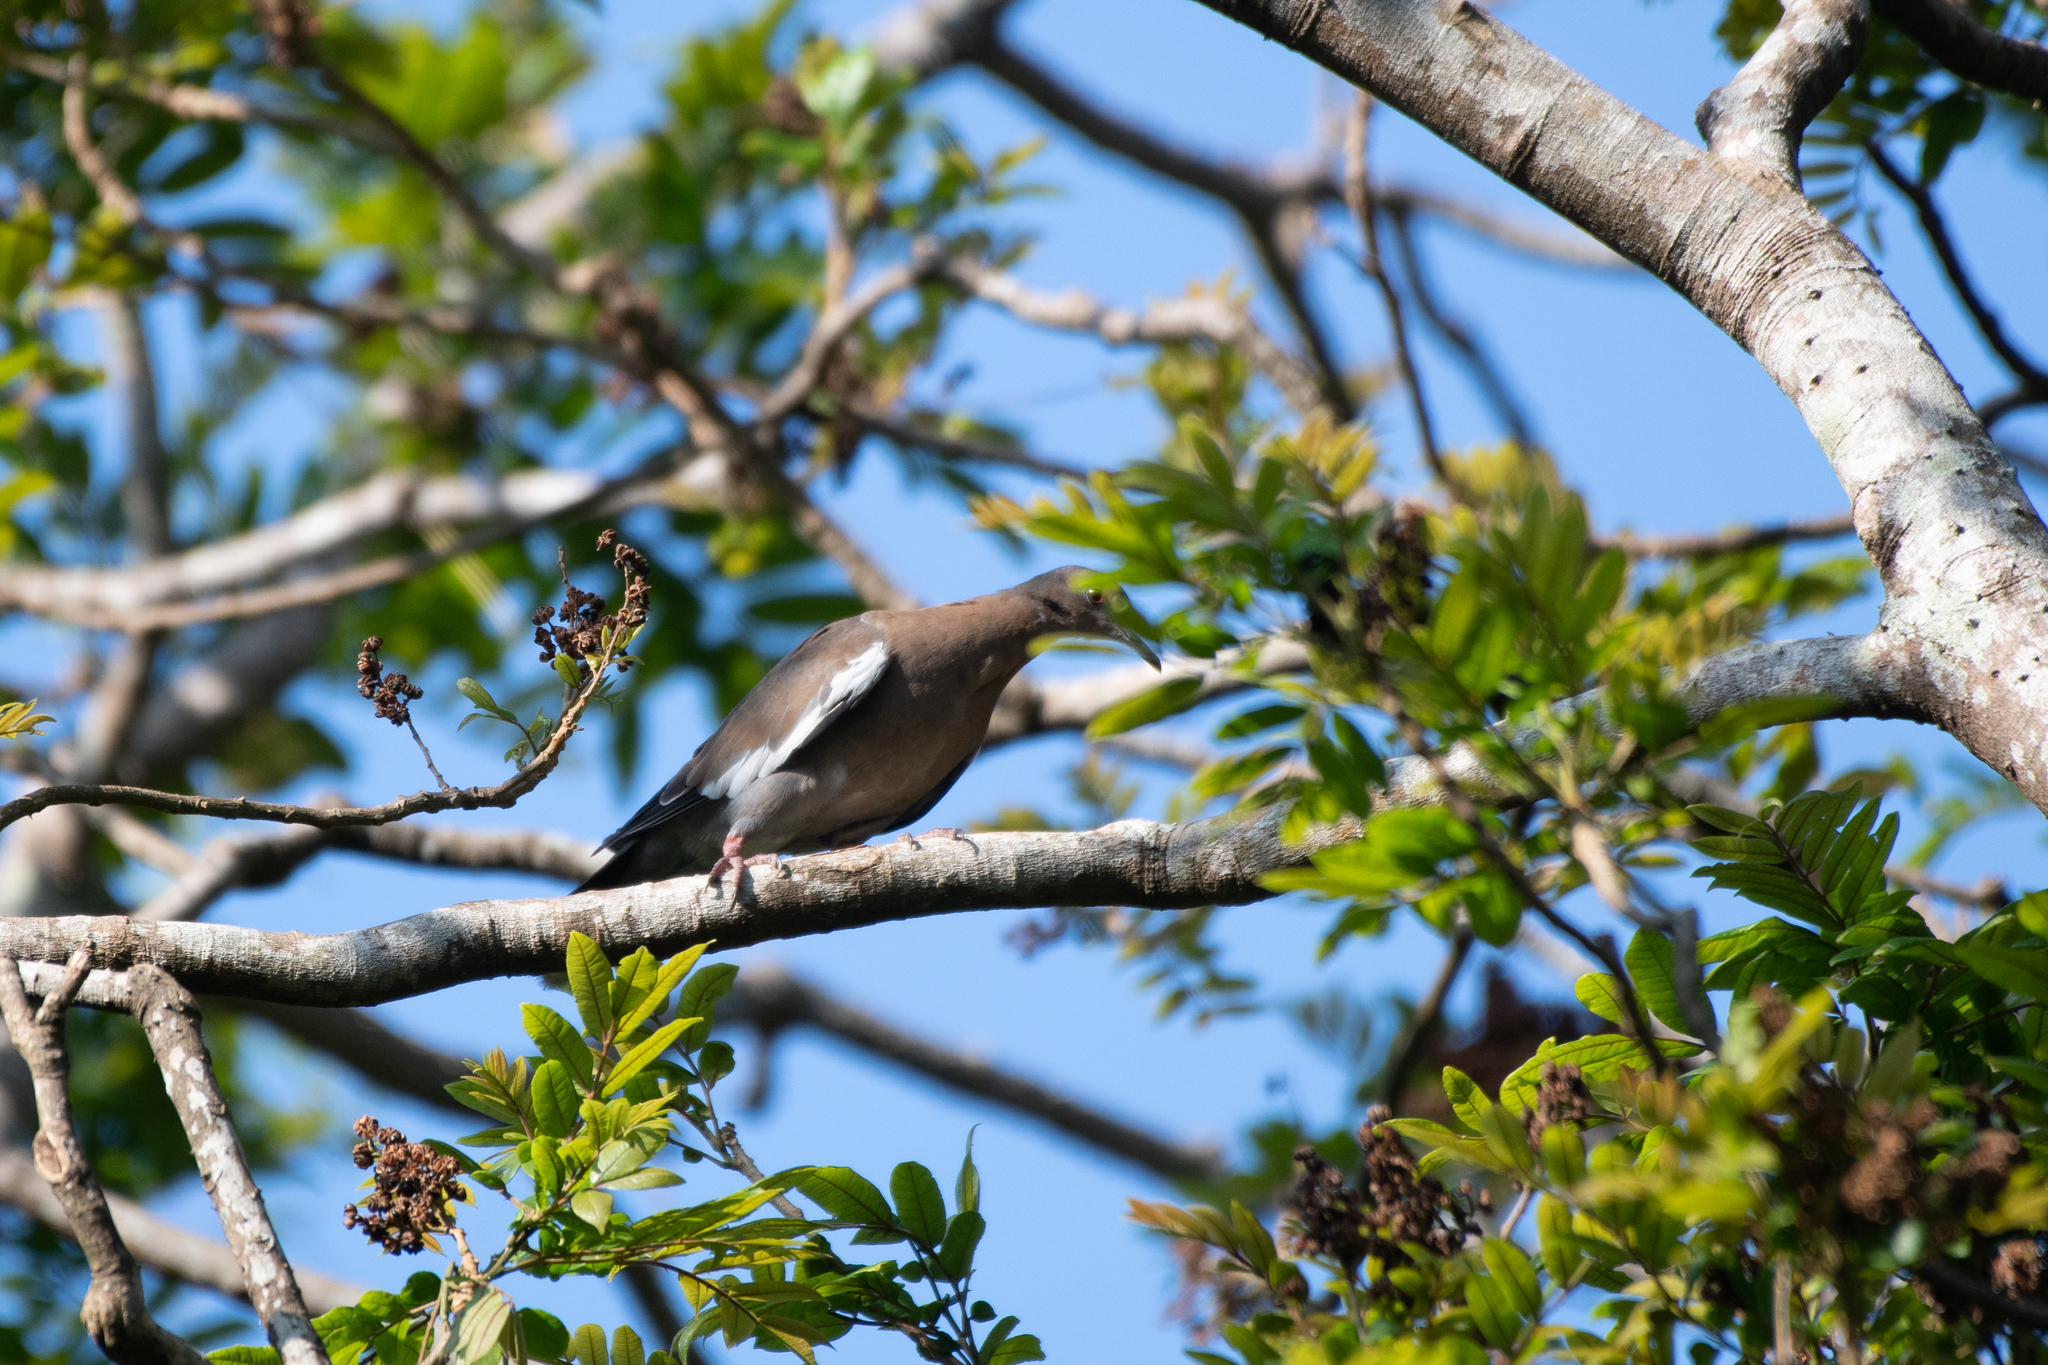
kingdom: Animalia
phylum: Chordata
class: Aves
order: Columbiformes
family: Columbidae
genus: Zenaida
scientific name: Zenaida asiatica
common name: White-winged dove
